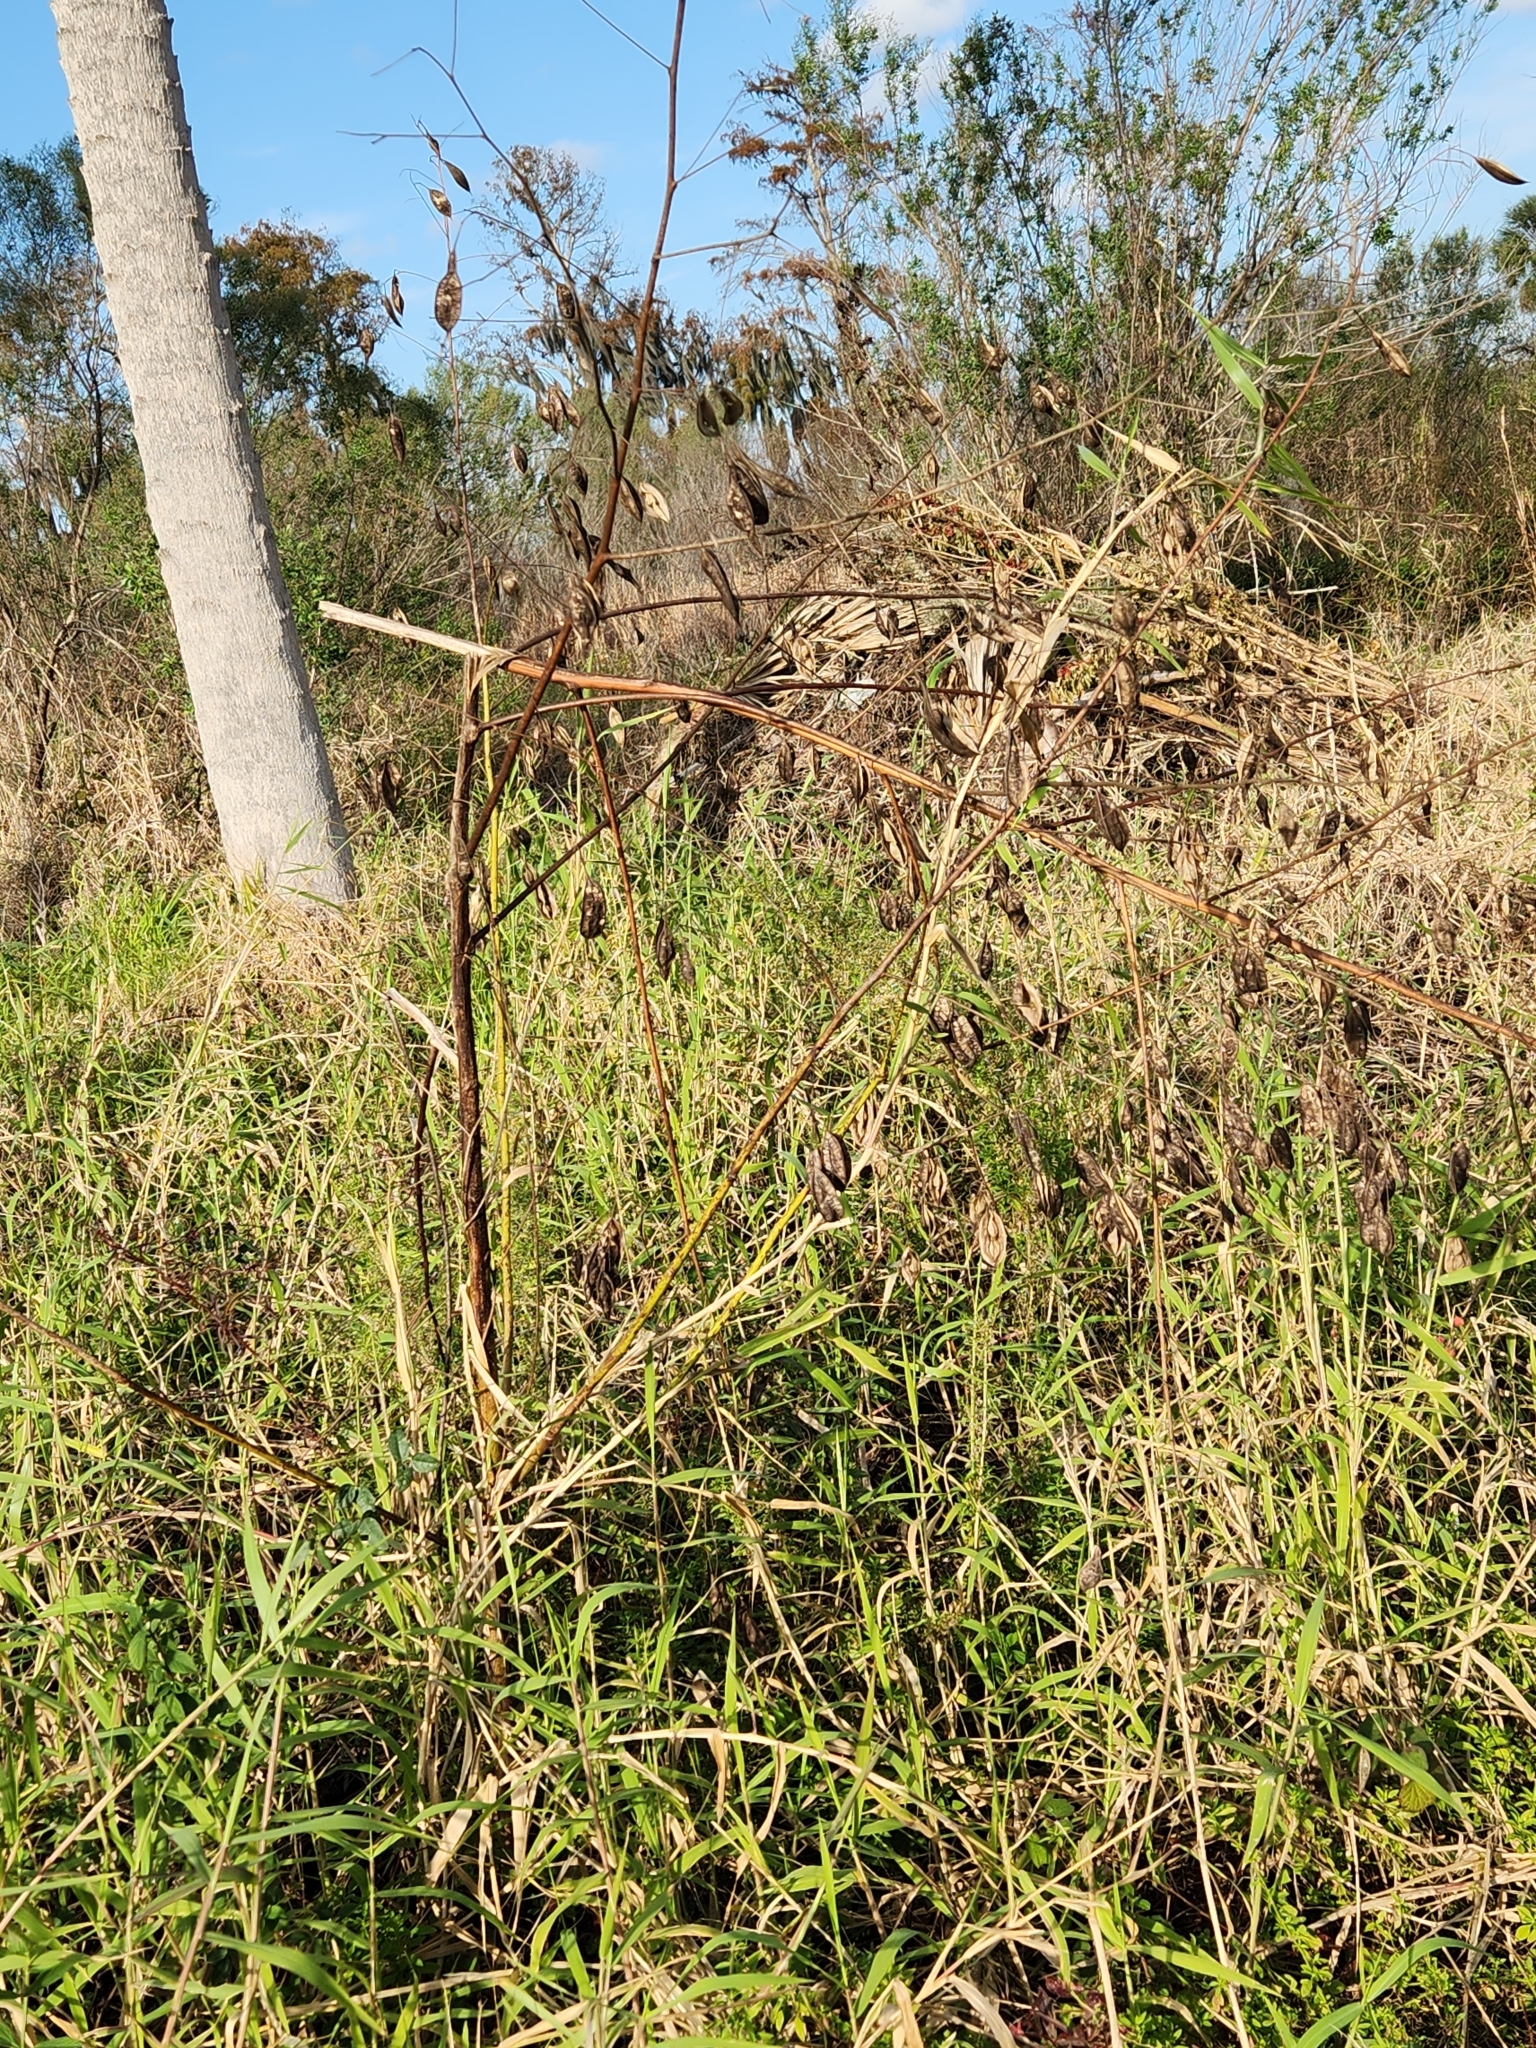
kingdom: Plantae
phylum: Tracheophyta
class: Magnoliopsida
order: Fabales
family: Fabaceae
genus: Sesbania
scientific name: Sesbania vesicaria
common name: Bagpod
